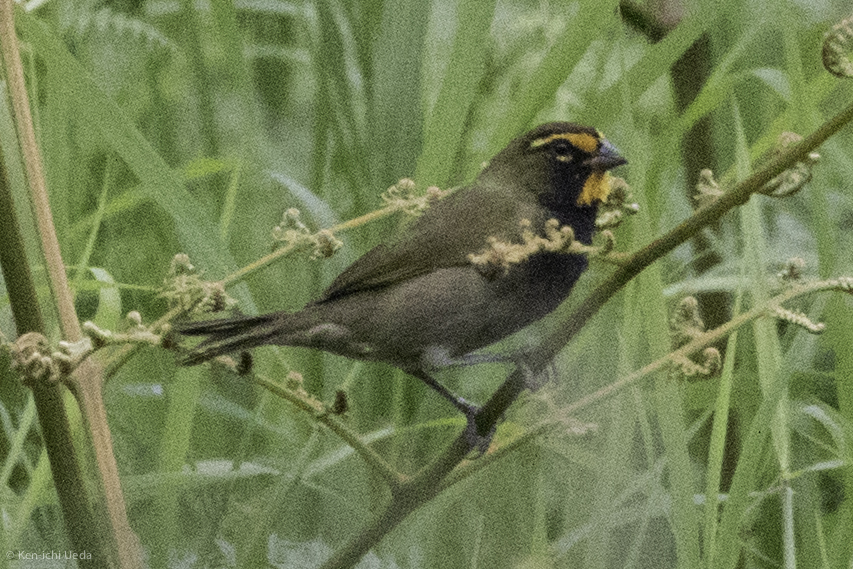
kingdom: Animalia
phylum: Chordata
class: Aves
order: Passeriformes
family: Thraupidae
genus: Tiaris
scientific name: Tiaris olivaceus
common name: Yellow-faced grassquit
